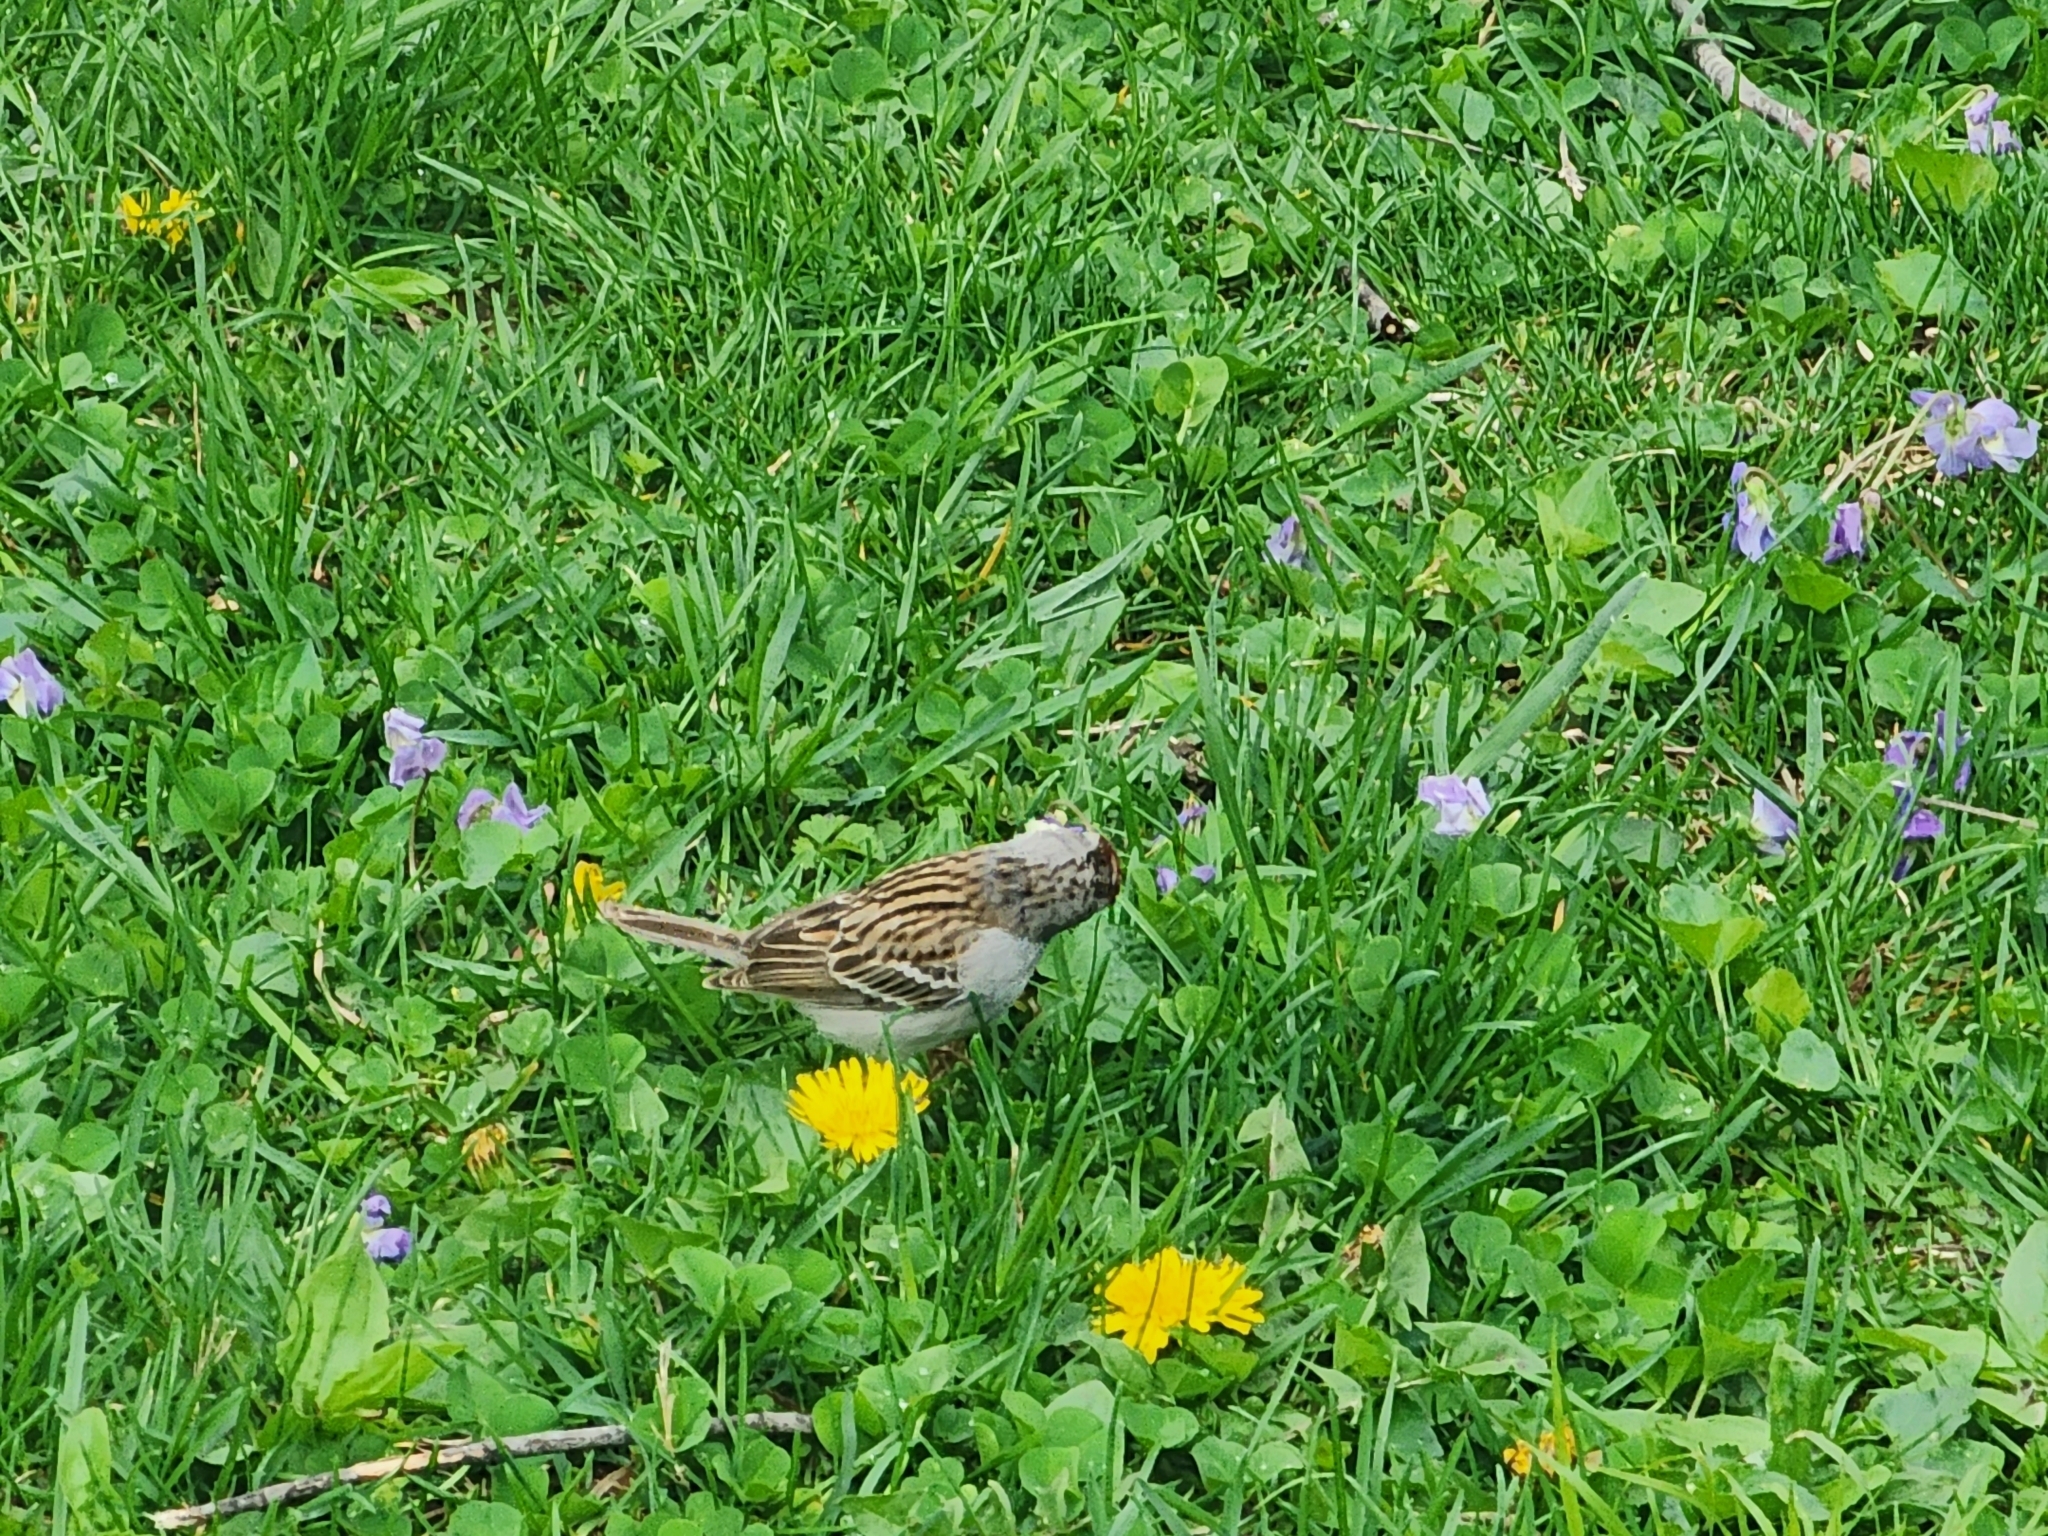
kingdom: Animalia
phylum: Chordata
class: Aves
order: Passeriformes
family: Passerellidae
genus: Spizella
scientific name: Spizella passerina
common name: Chipping sparrow
